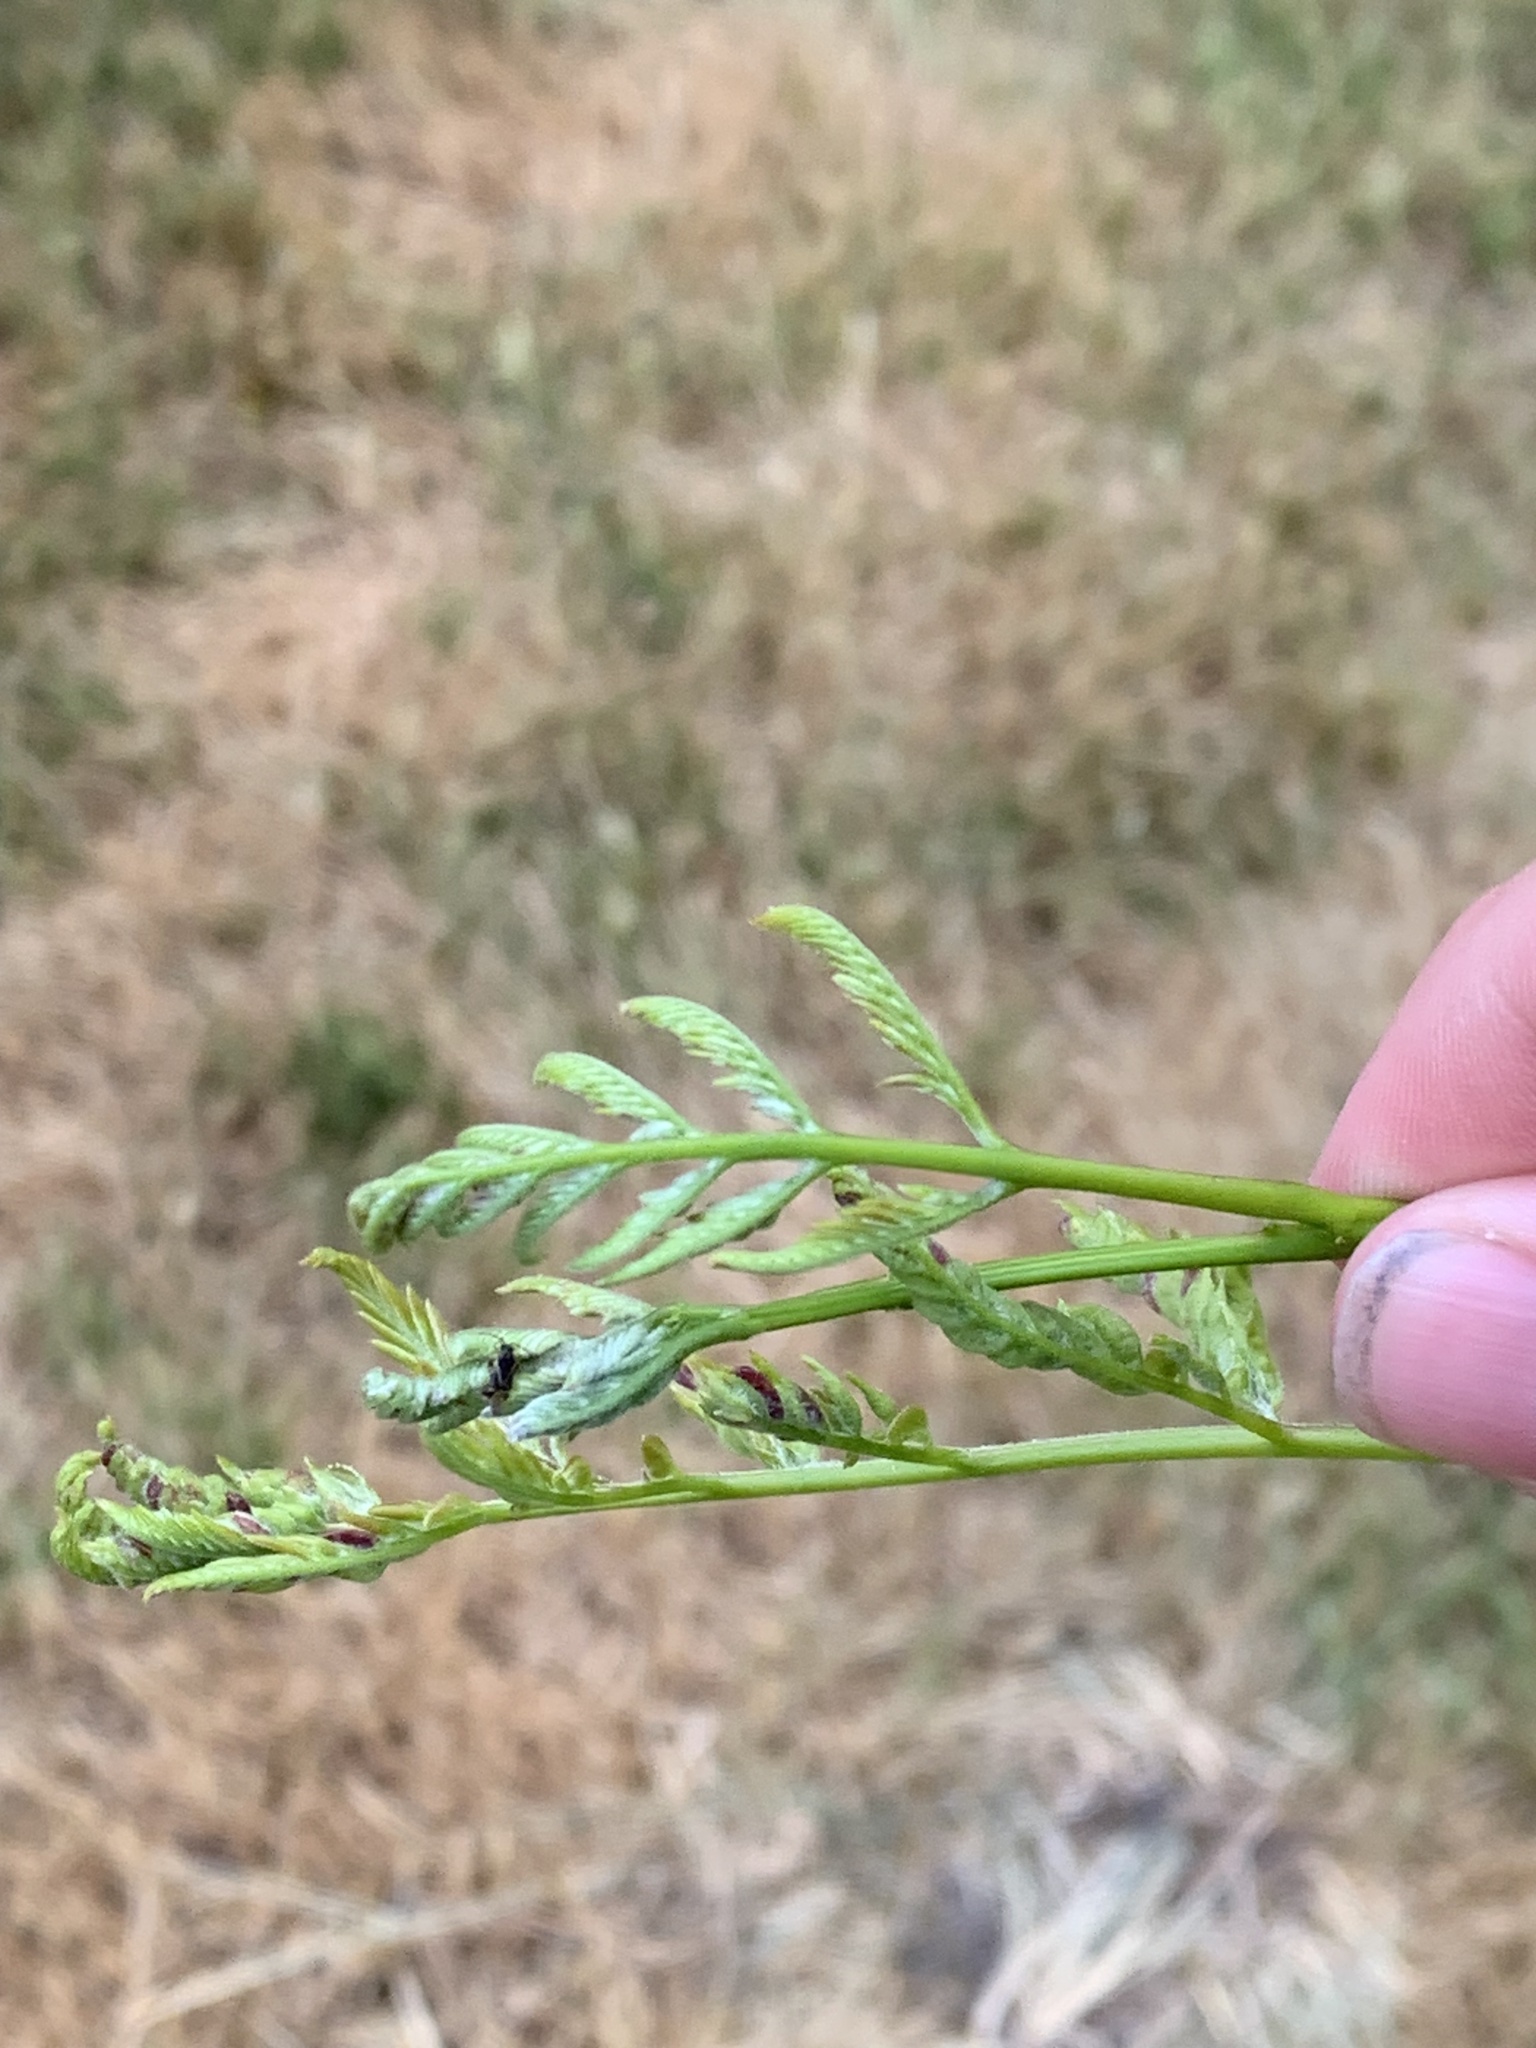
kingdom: Animalia
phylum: Arthropoda
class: Insecta
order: Diptera
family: Cecidomyiidae
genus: Dasineura
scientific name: Dasineura gleditchiae
